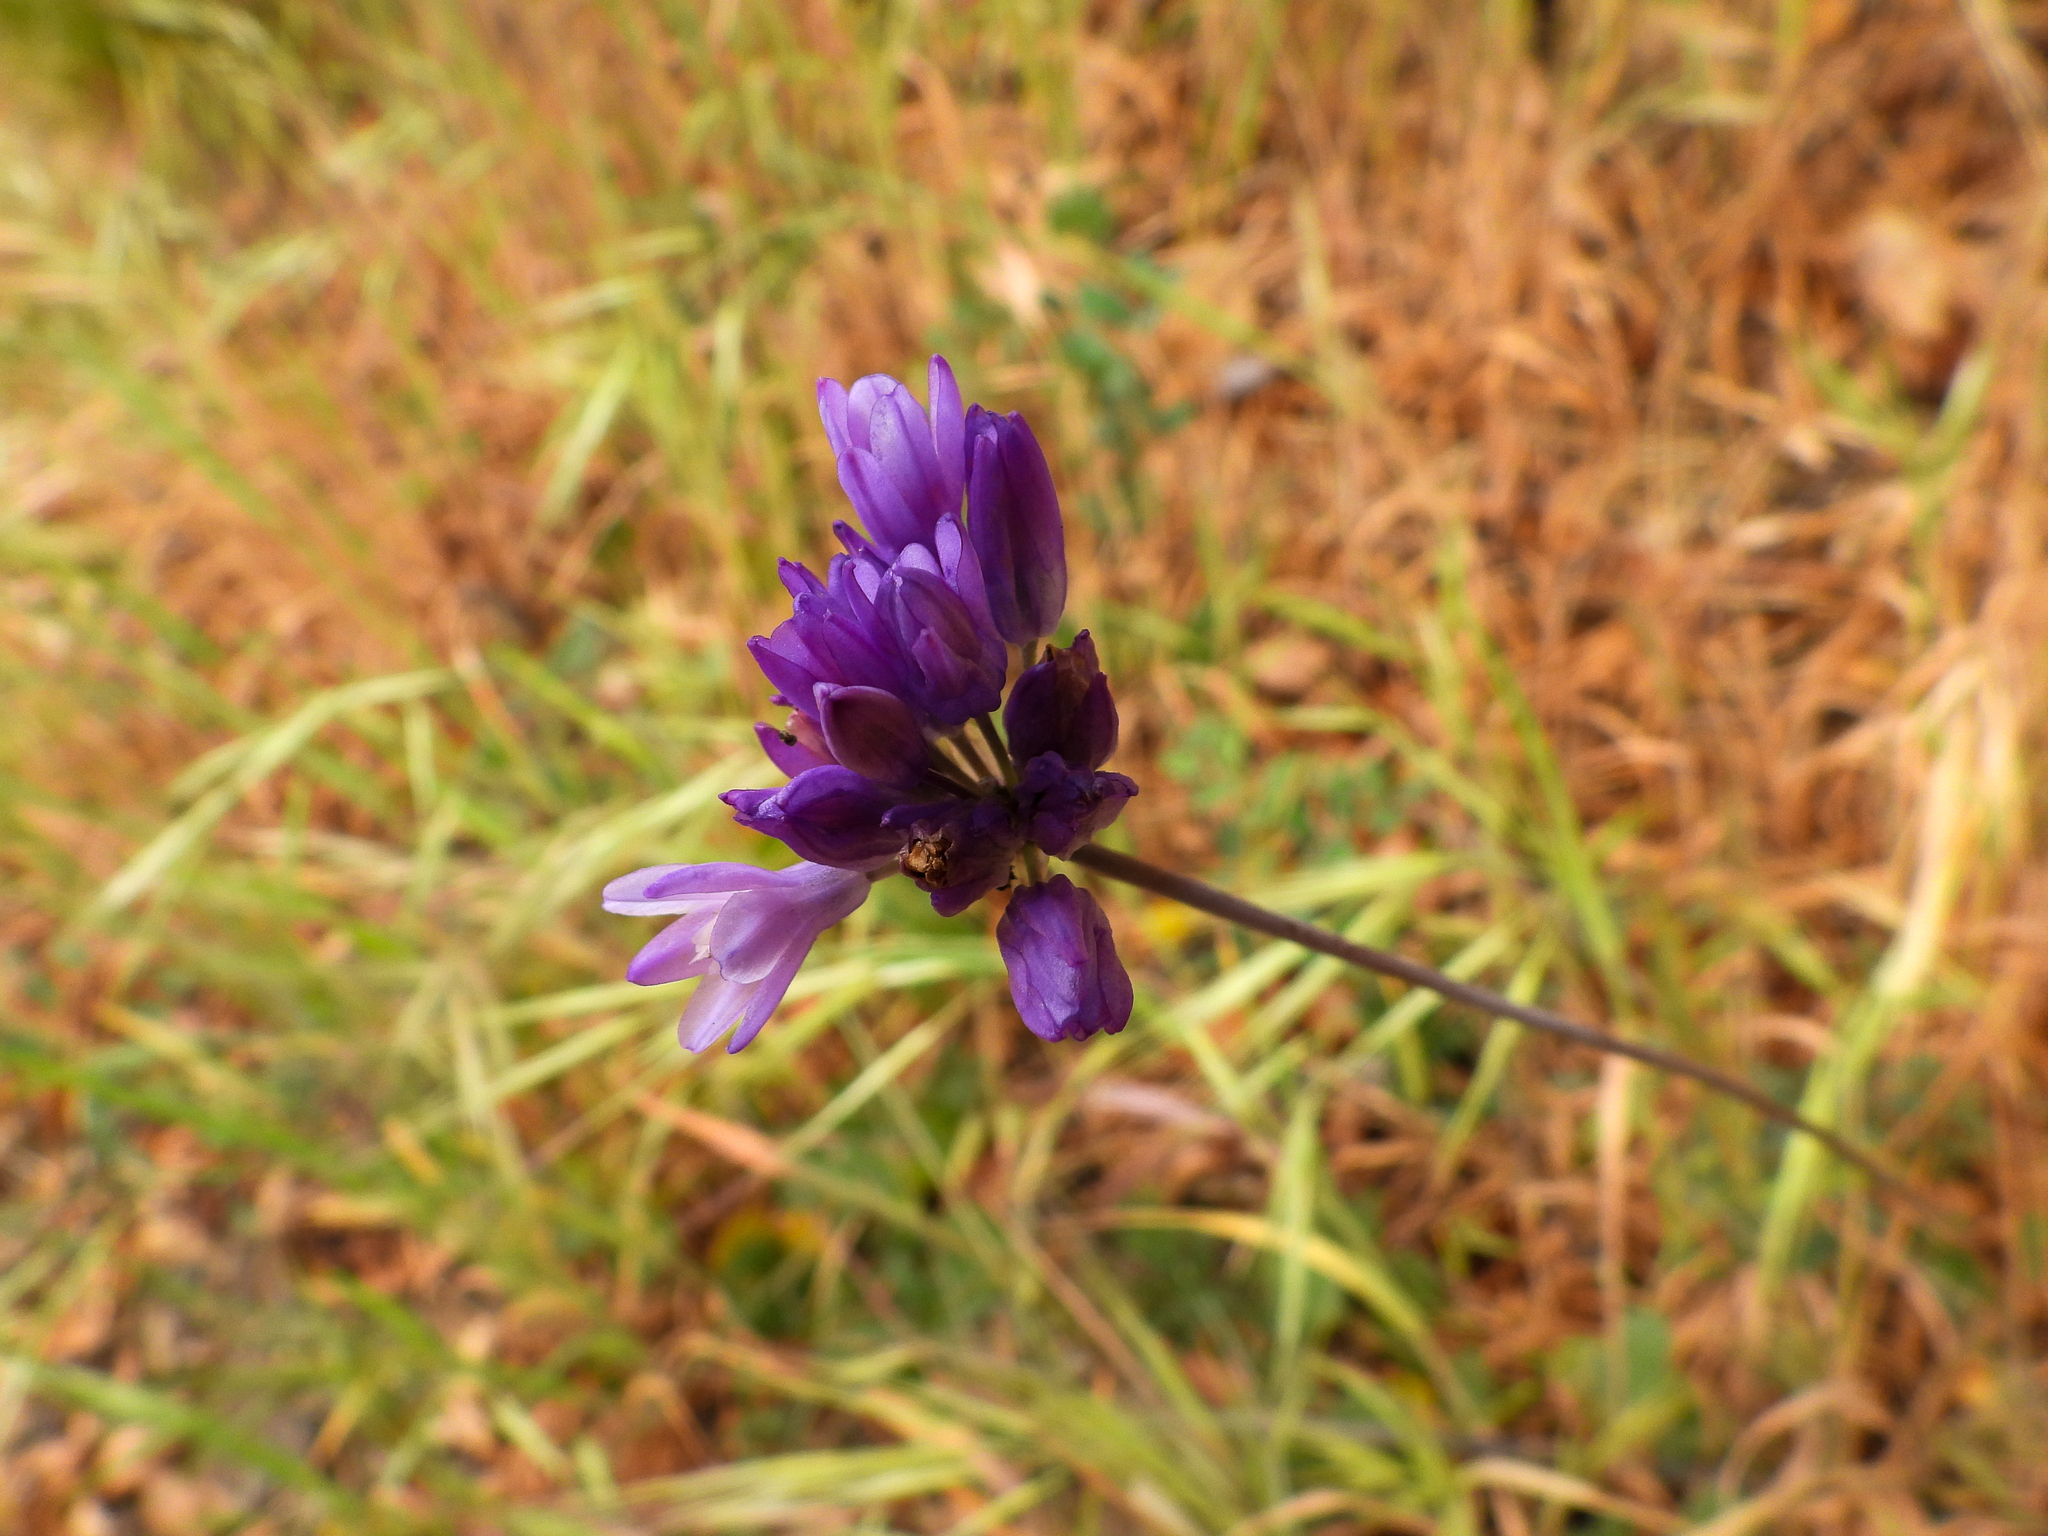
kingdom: Plantae
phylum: Tracheophyta
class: Liliopsida
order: Asparagales
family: Asparagaceae
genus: Dipterostemon
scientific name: Dipterostemon capitatus
